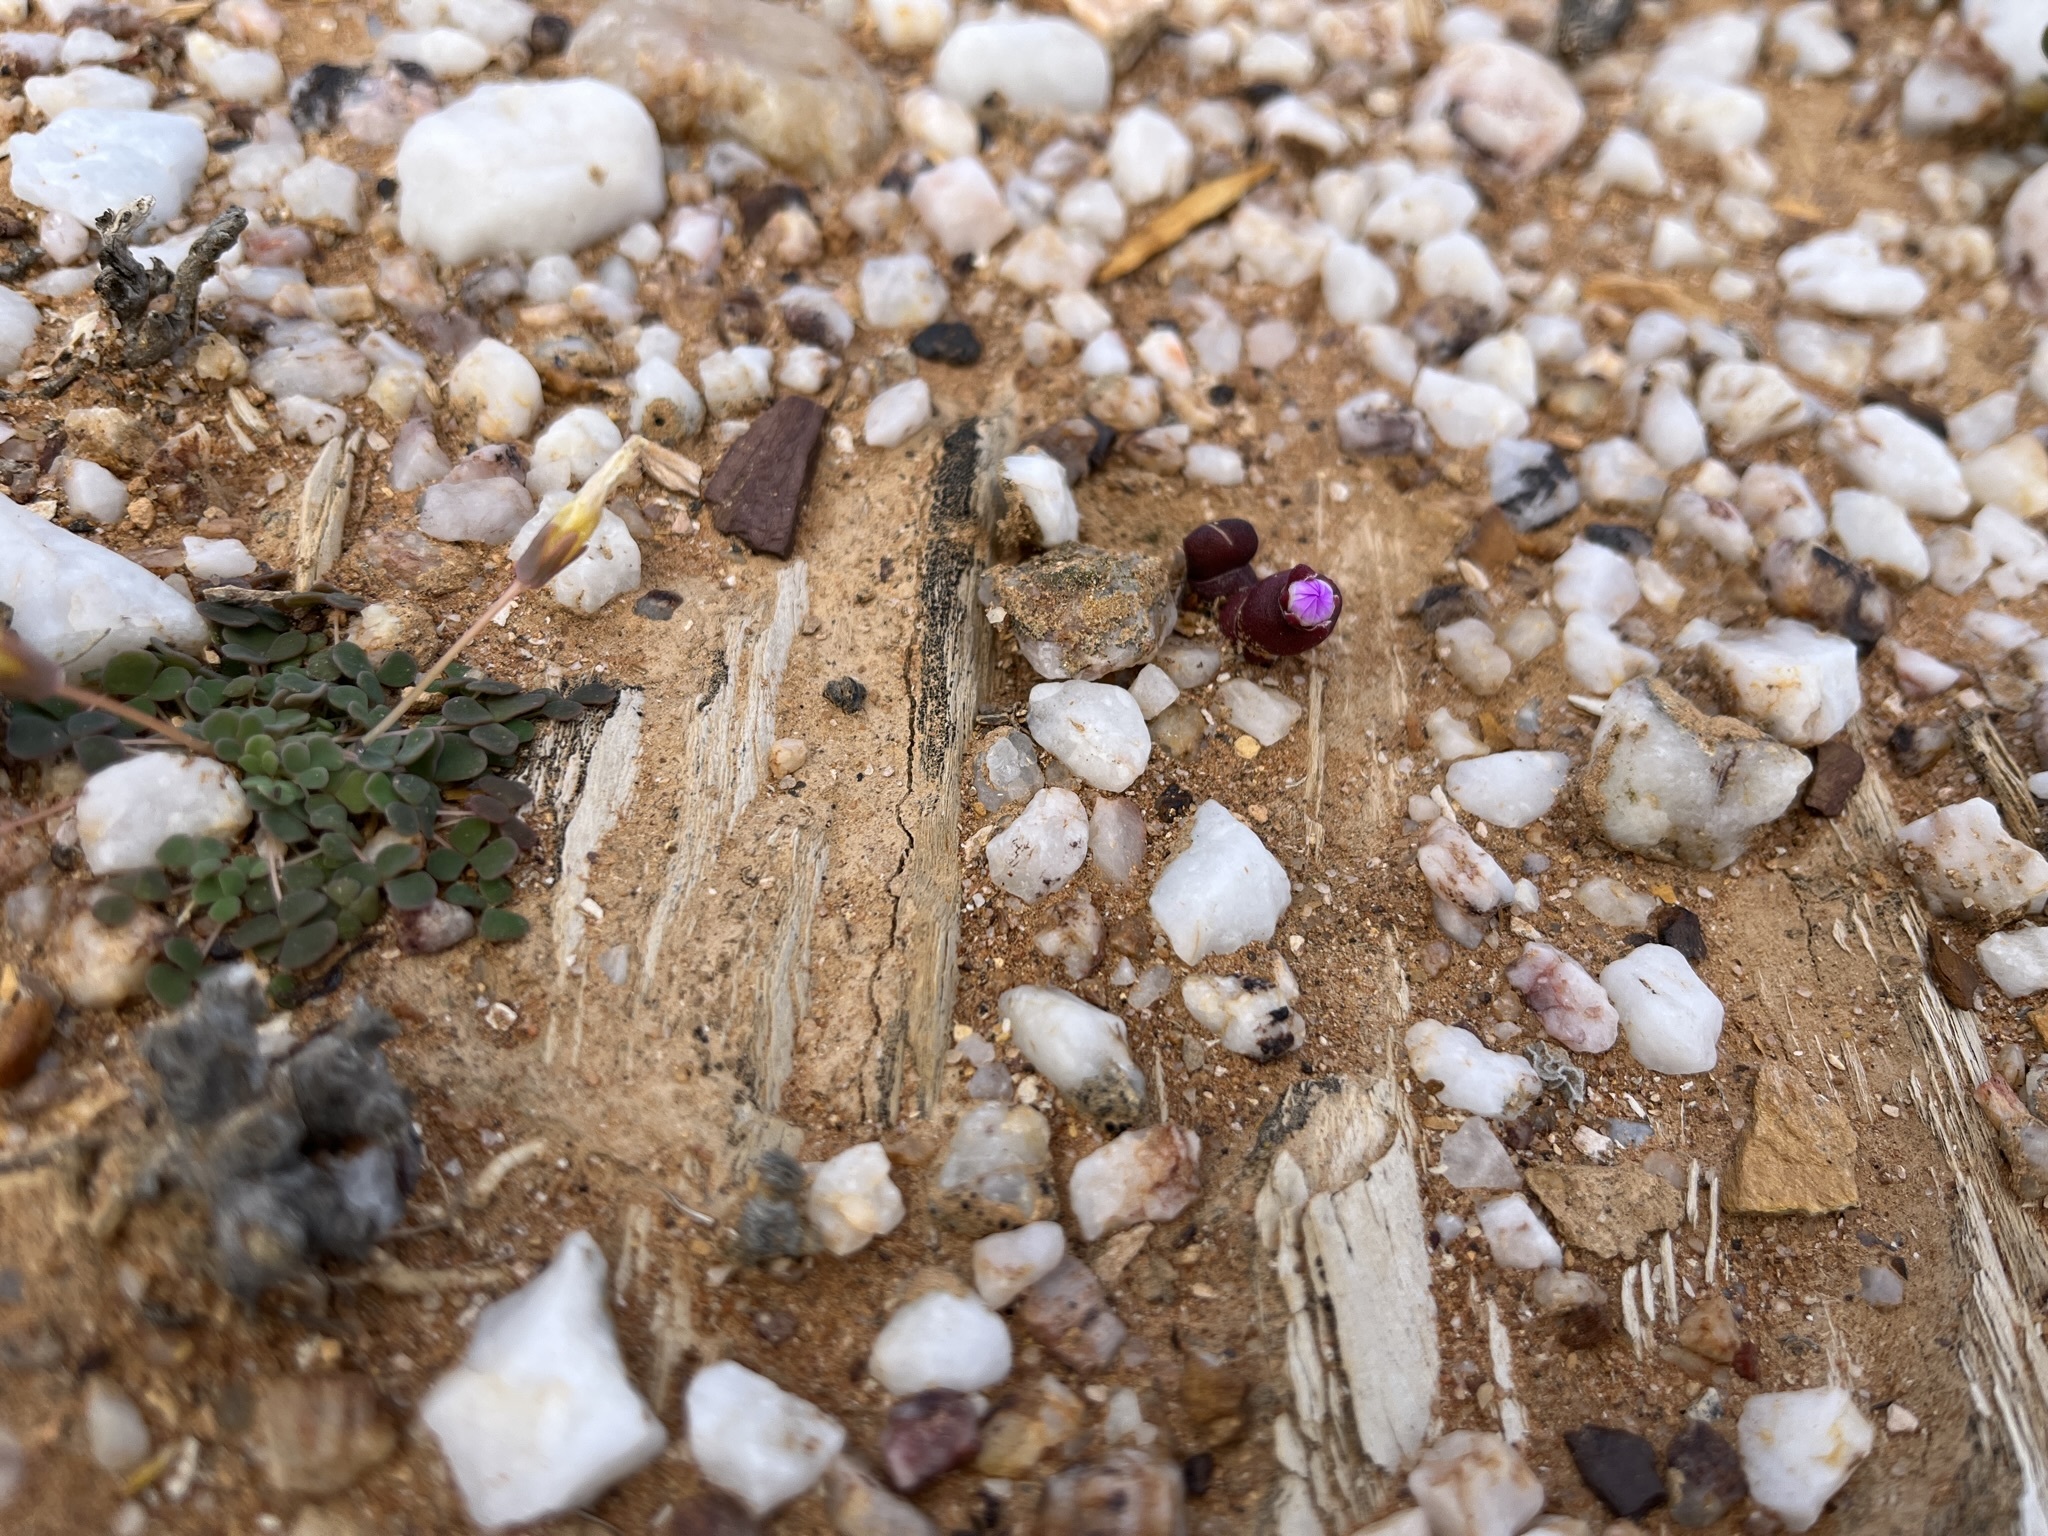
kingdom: Plantae
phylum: Tracheophyta
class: Magnoliopsida
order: Caryophyllales
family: Aizoaceae
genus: Oophytum
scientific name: Oophytum nanum
